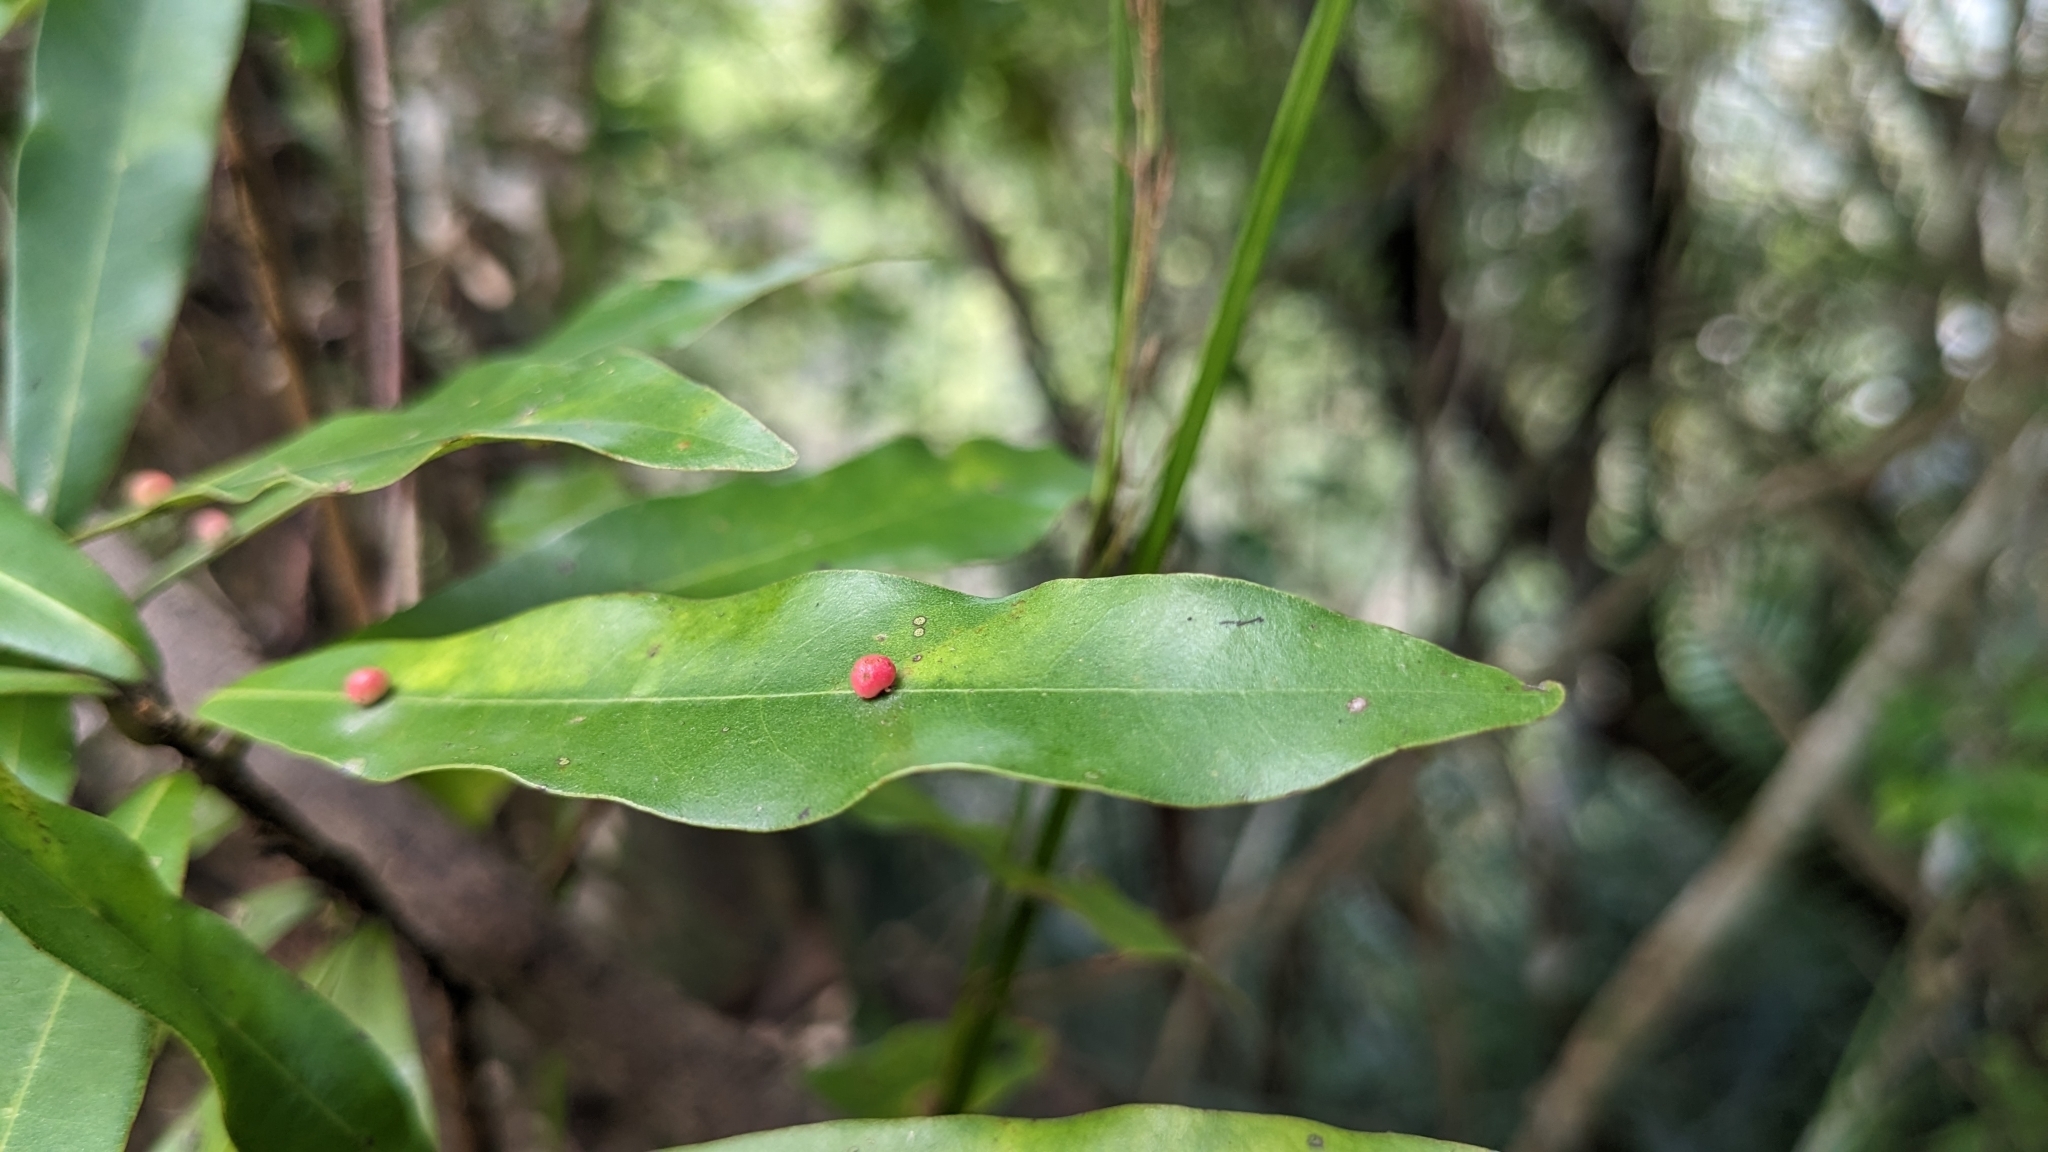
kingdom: Plantae
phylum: Tracheophyta
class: Magnoliopsida
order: Laurales
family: Lauraceae
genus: Litsea
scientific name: Litsea hypophaea
